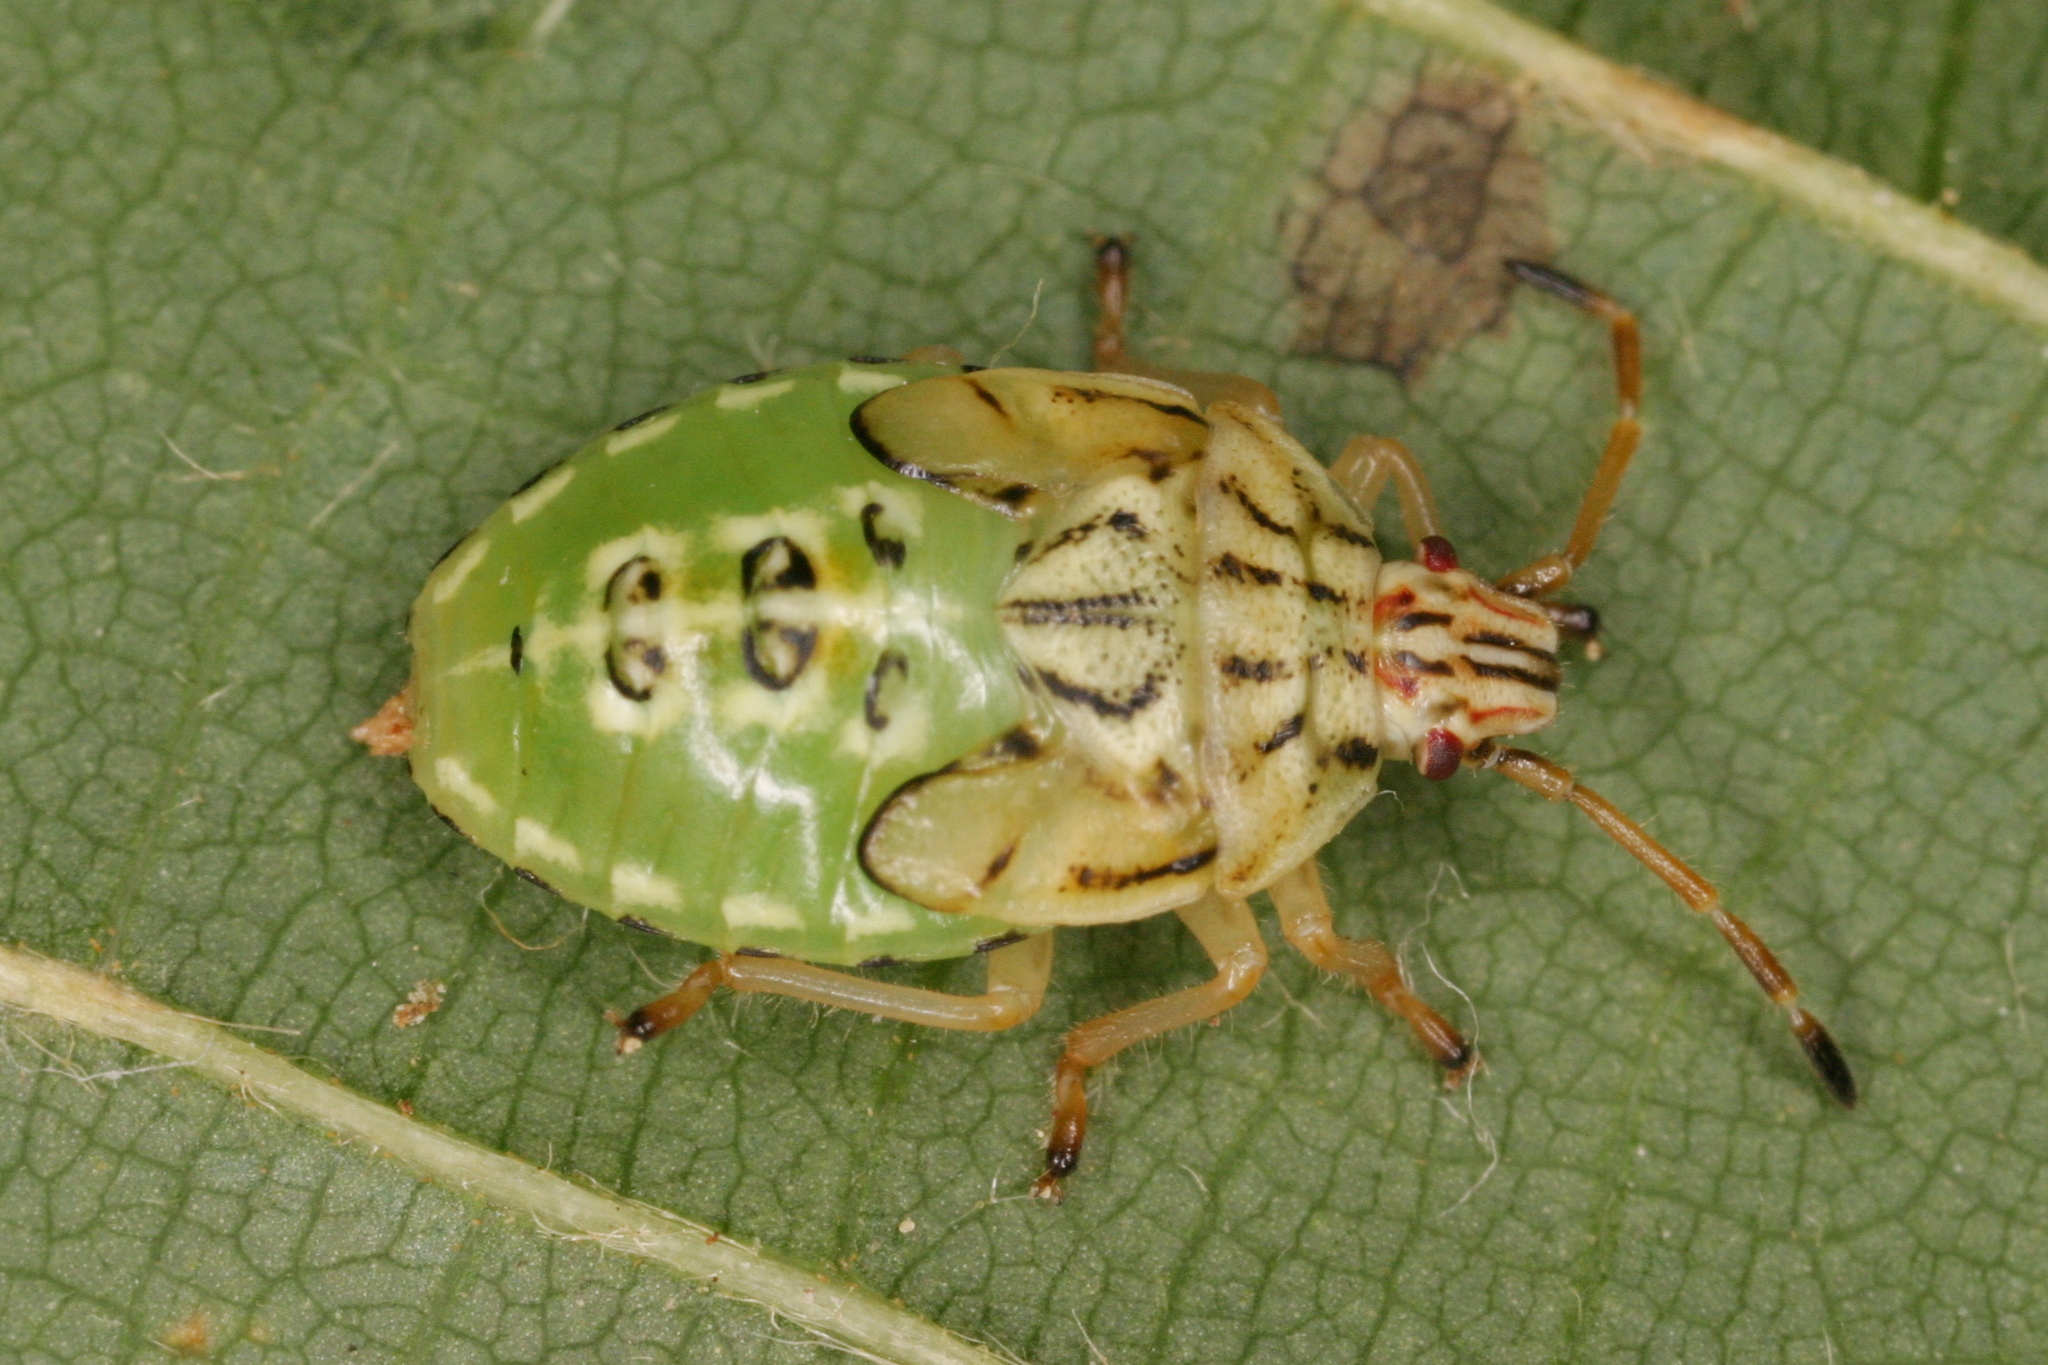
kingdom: Animalia
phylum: Arthropoda
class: Insecta
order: Hemiptera
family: Acanthosomatidae
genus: Elasmucha
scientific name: Elasmucha grisea
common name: Parent bug
